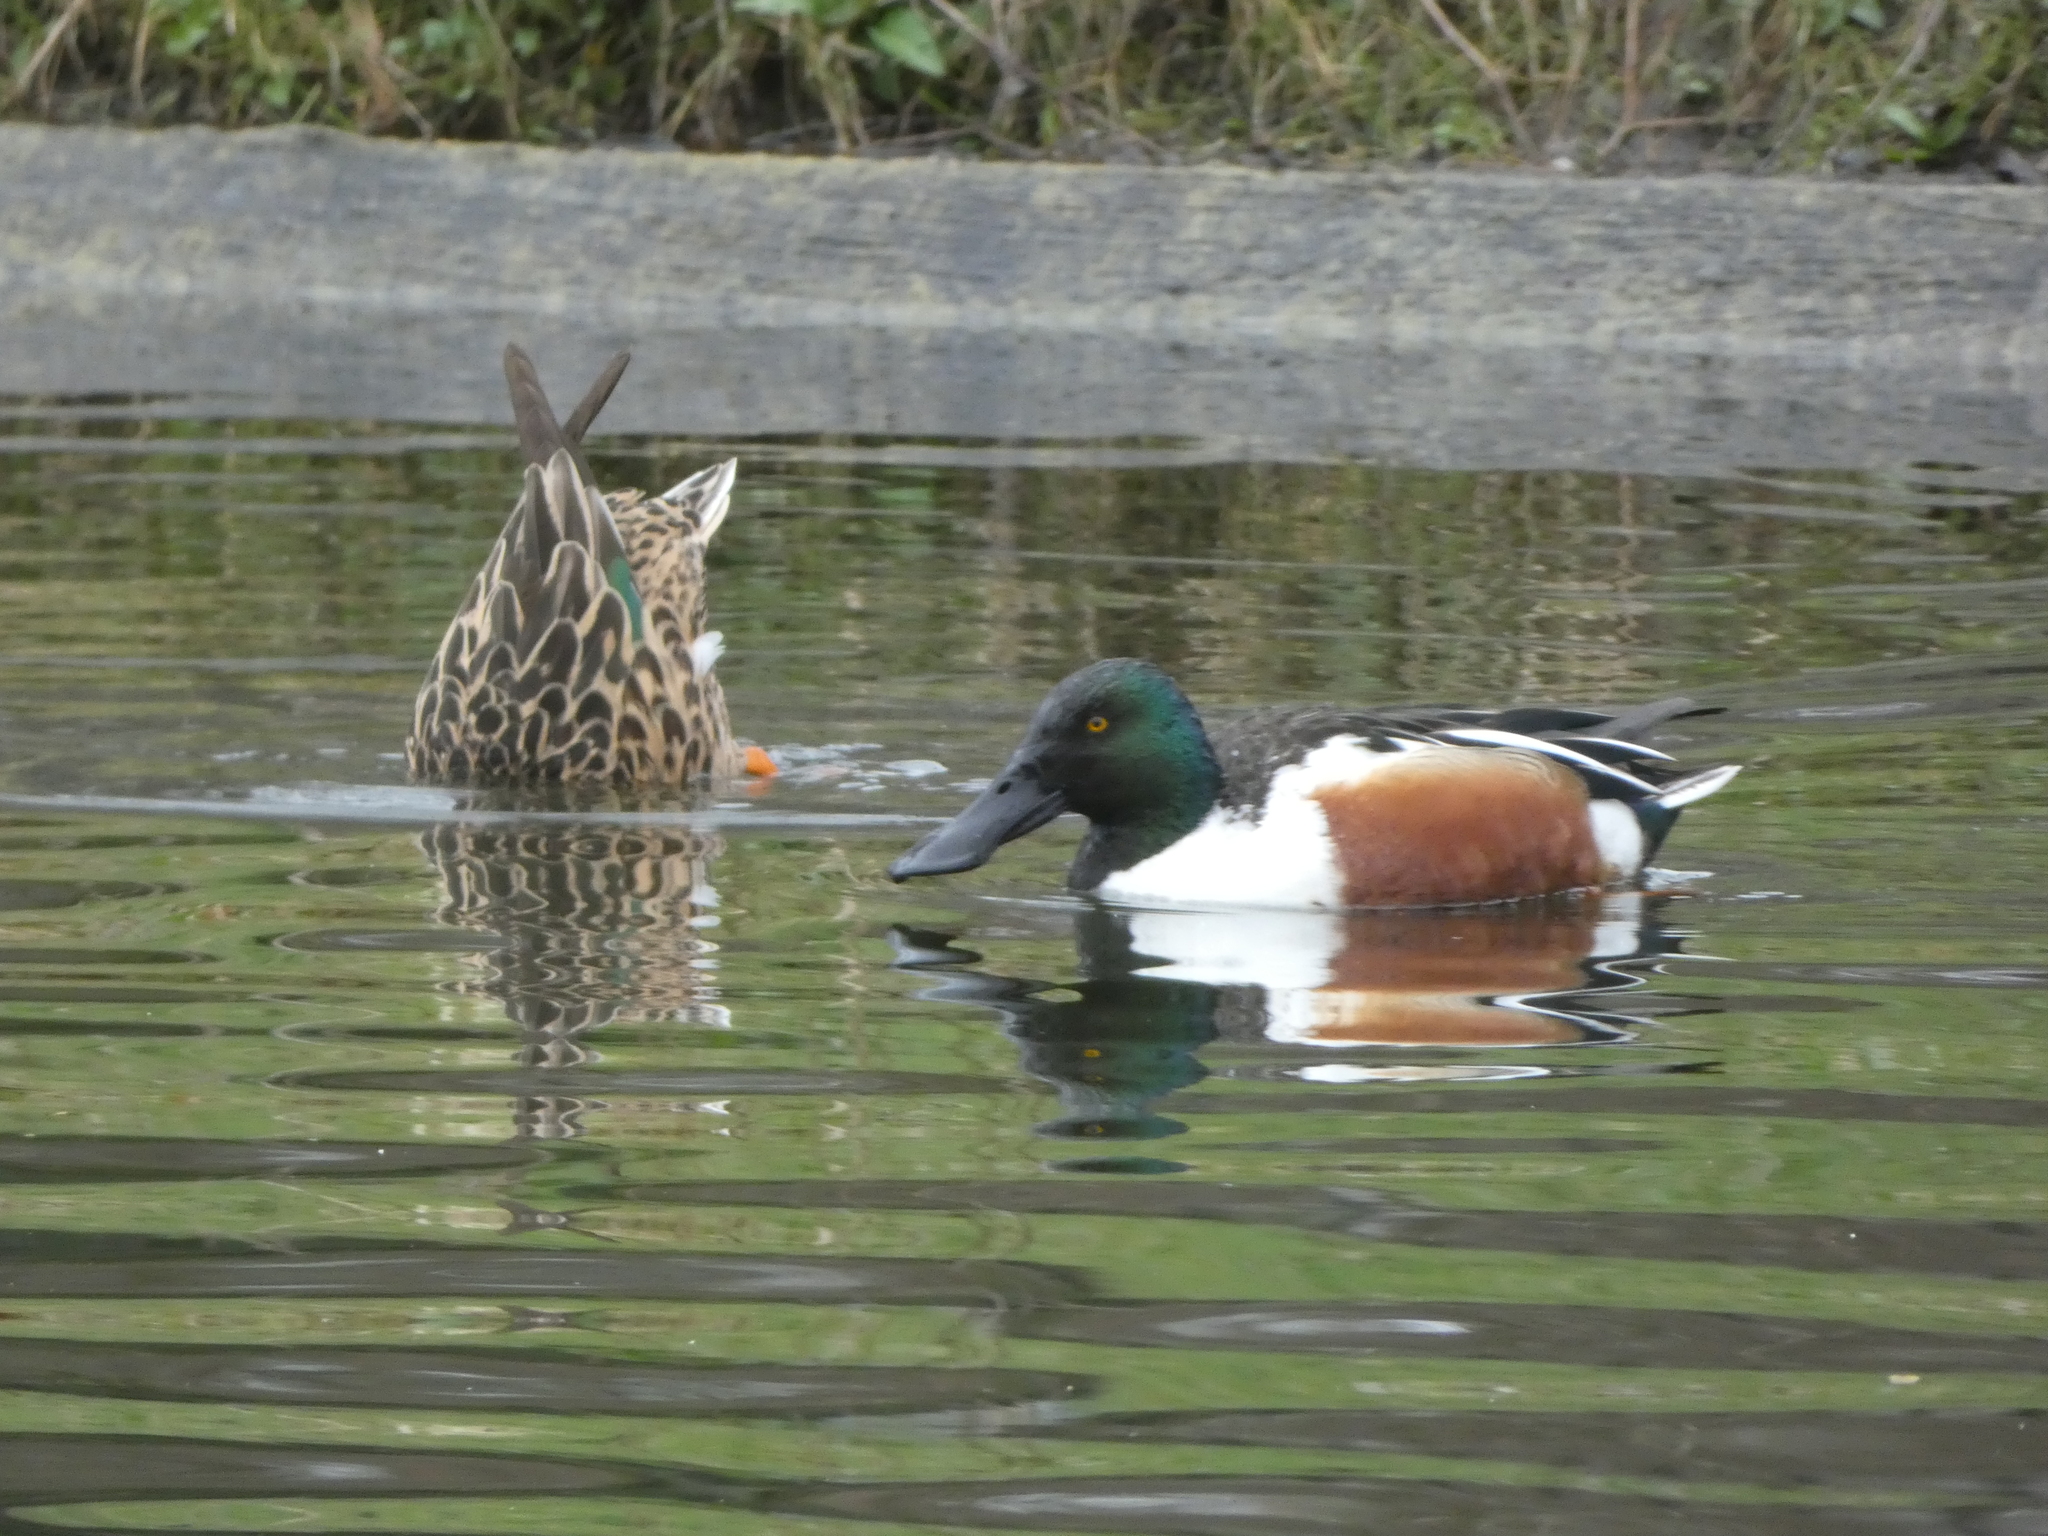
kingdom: Animalia
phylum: Chordata
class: Aves
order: Anseriformes
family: Anatidae
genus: Spatula
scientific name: Spatula clypeata
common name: Northern shoveler
